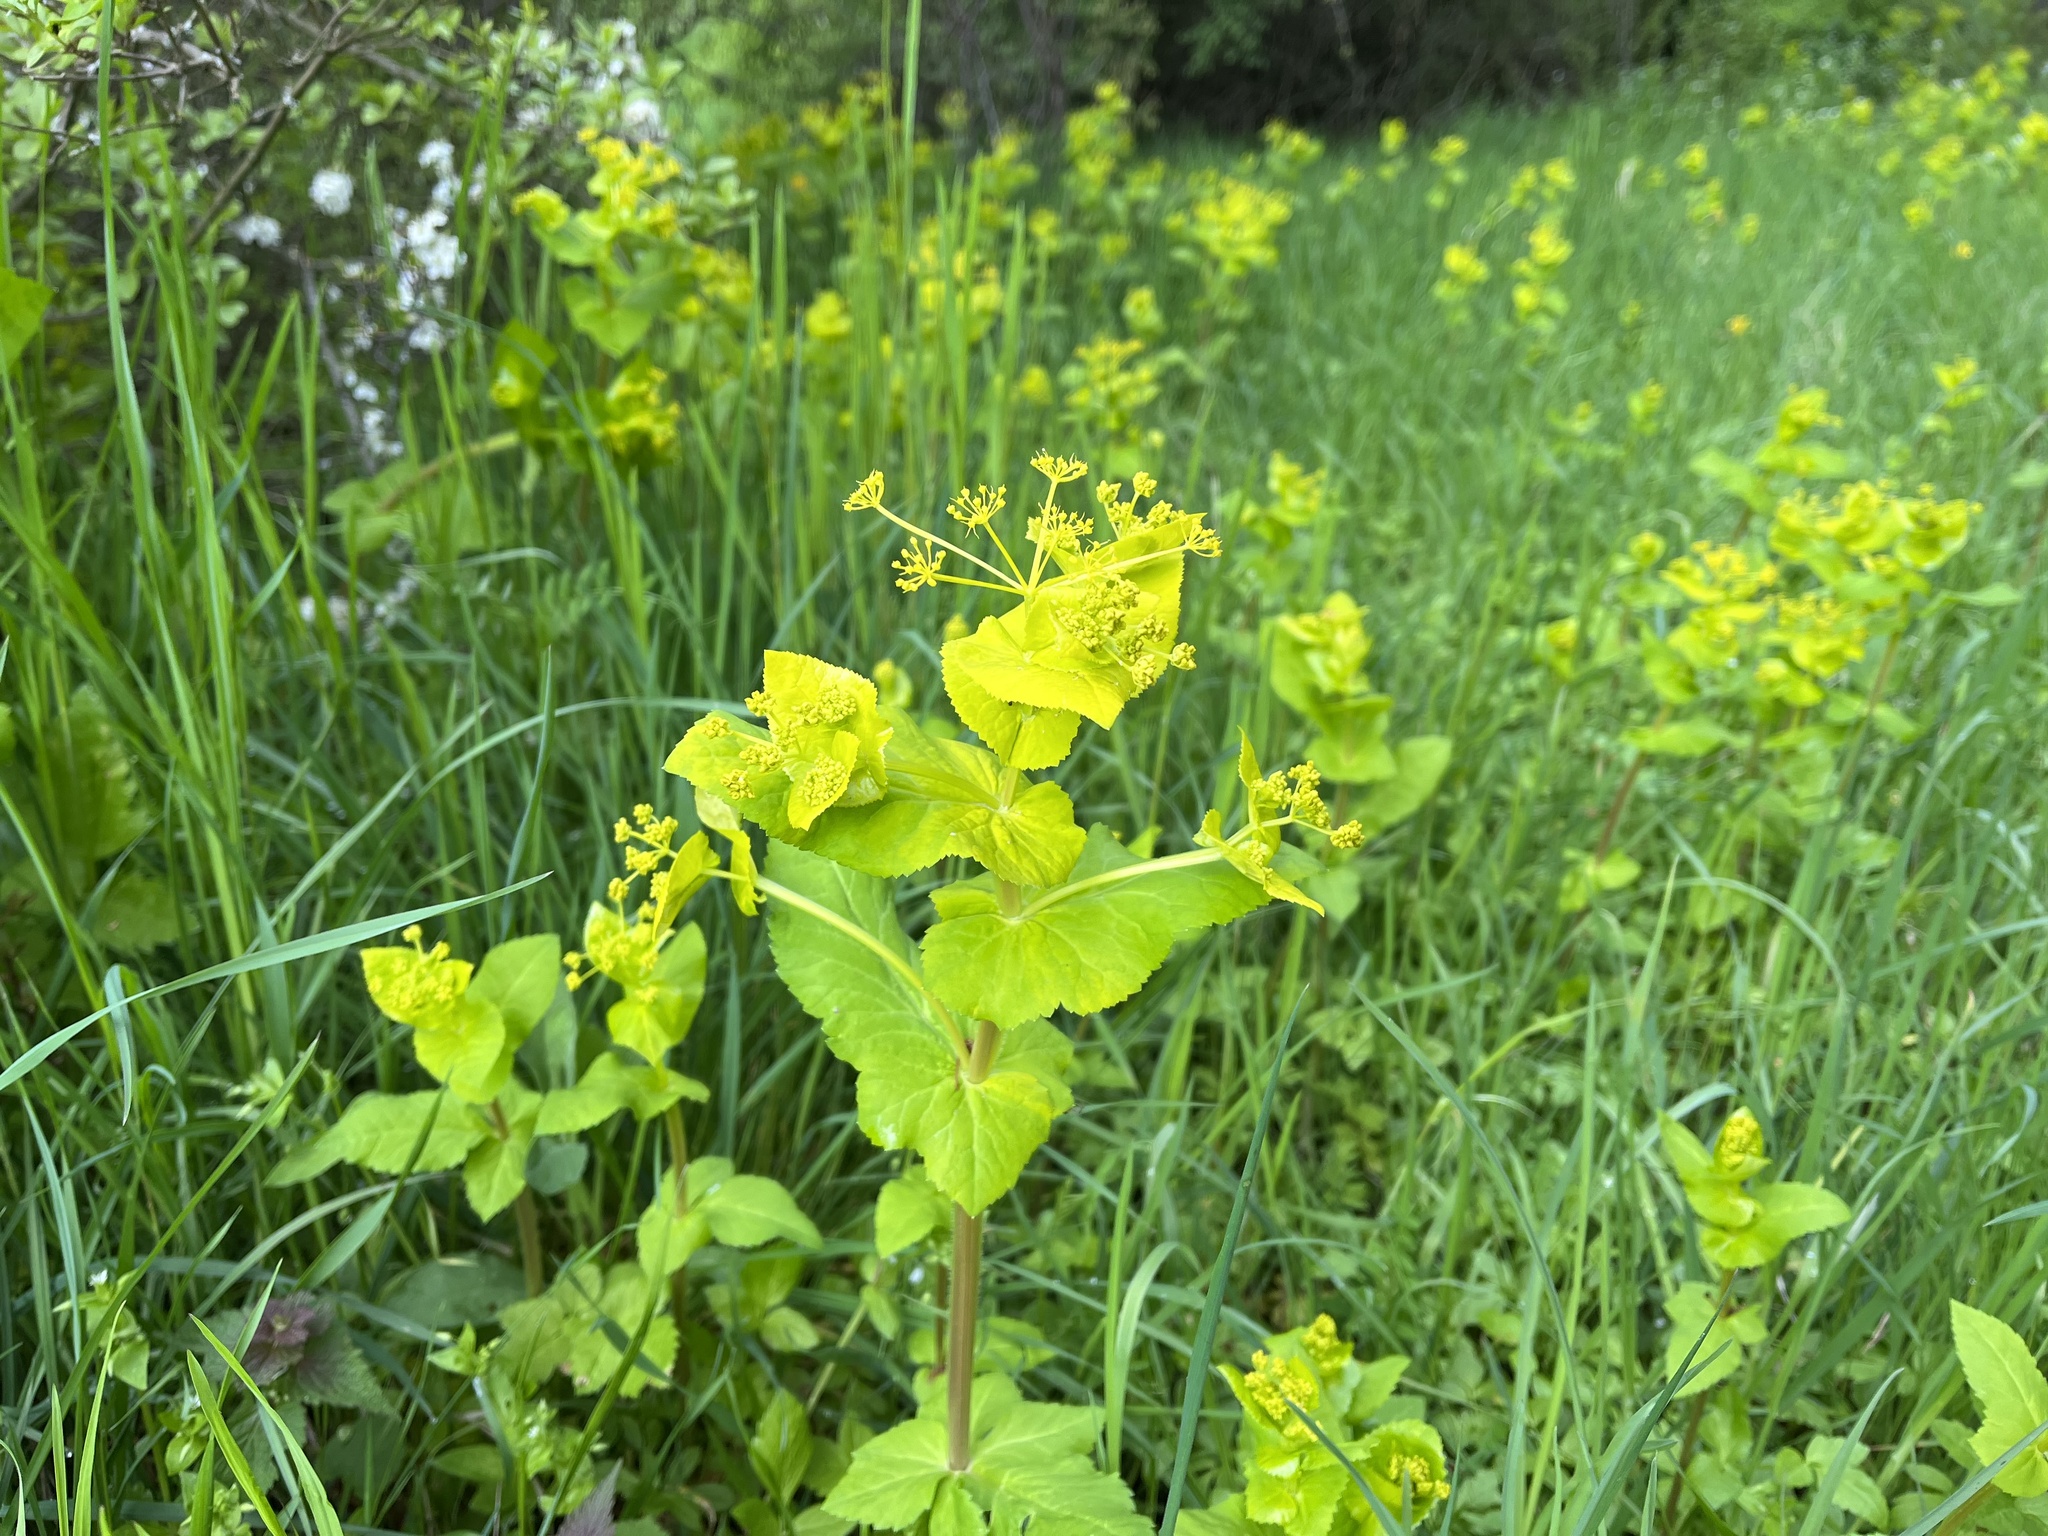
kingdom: Plantae
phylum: Tracheophyta
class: Magnoliopsida
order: Apiales
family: Apiaceae
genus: Smyrnium
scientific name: Smyrnium perfoliatum
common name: Perfoliate alexanders
